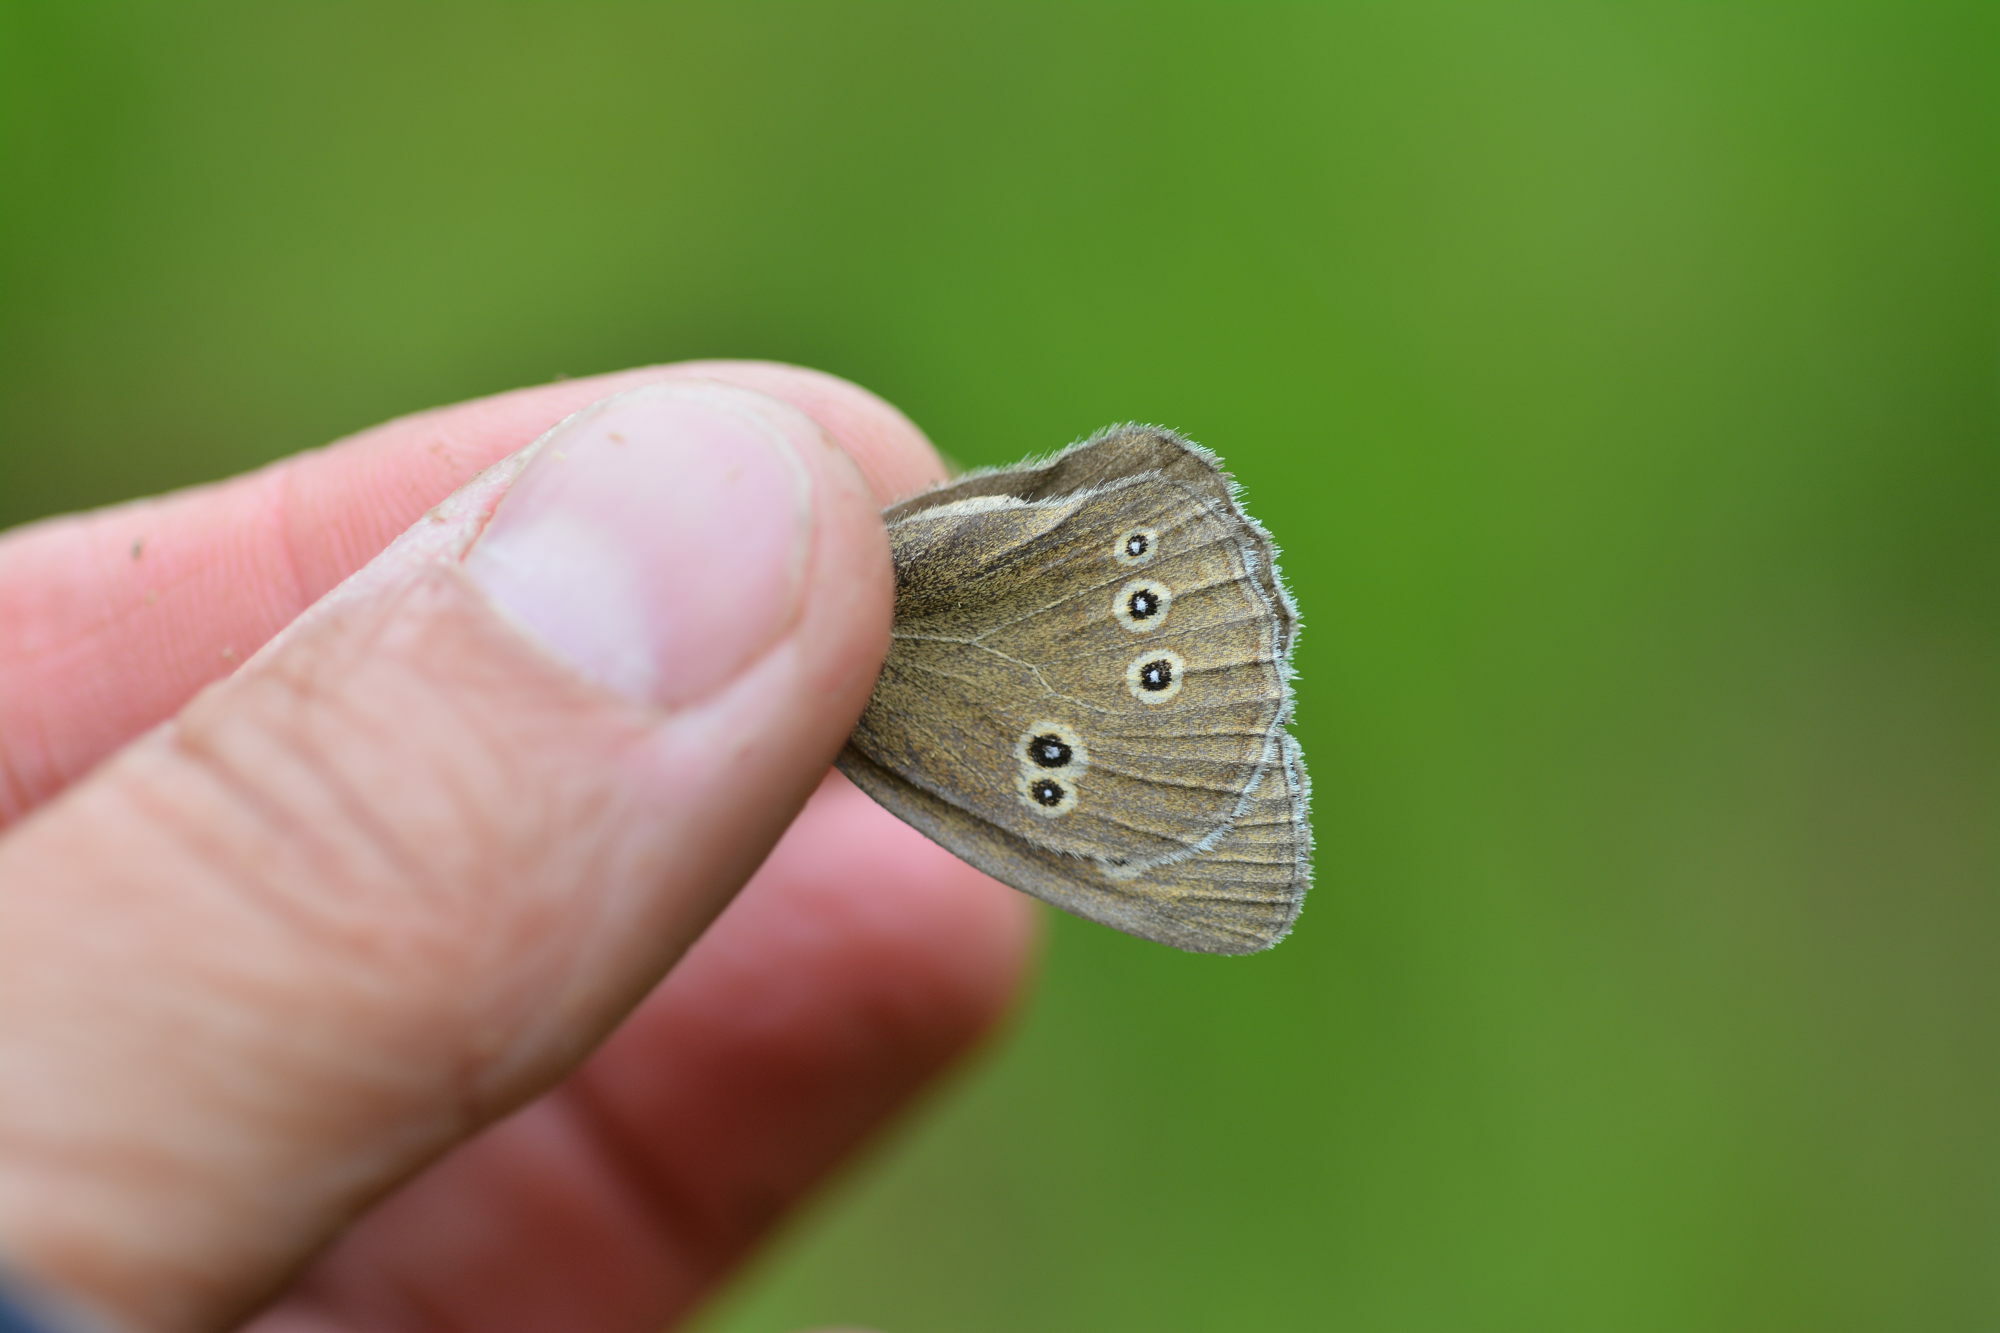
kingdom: Animalia
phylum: Arthropoda
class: Insecta
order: Lepidoptera
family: Nymphalidae
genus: Aphantopus
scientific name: Aphantopus hyperantus
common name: Ringlet
